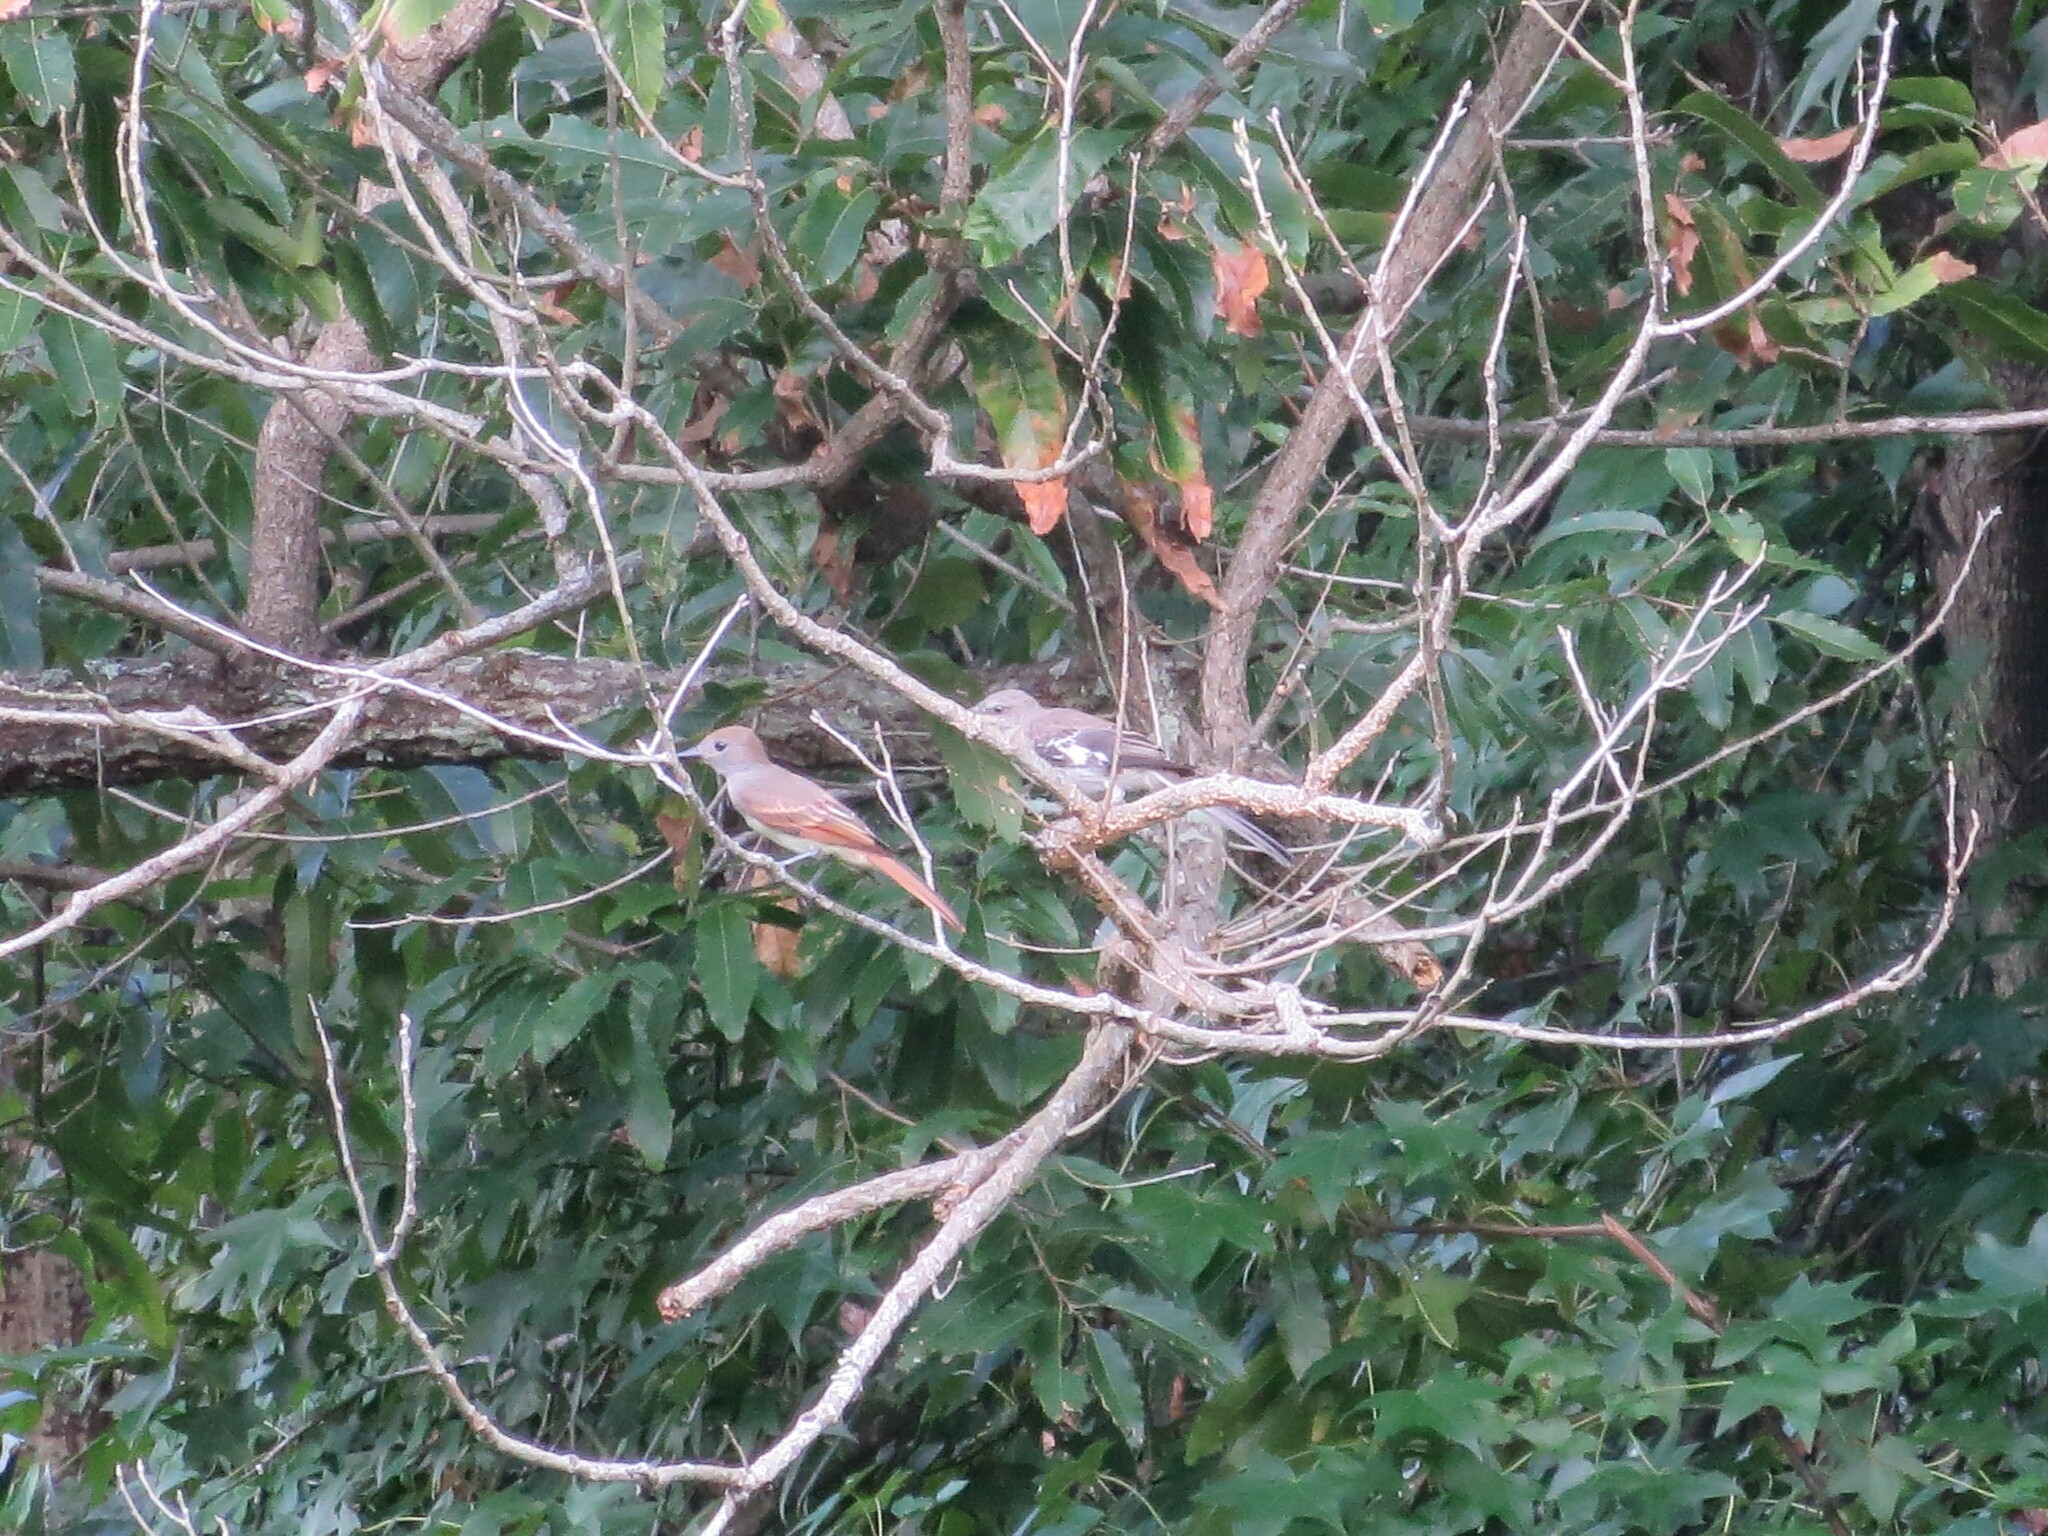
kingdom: Animalia
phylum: Chordata
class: Aves
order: Passeriformes
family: Mimidae
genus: Mimus
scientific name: Mimus polyglottos
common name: Northern mockingbird
